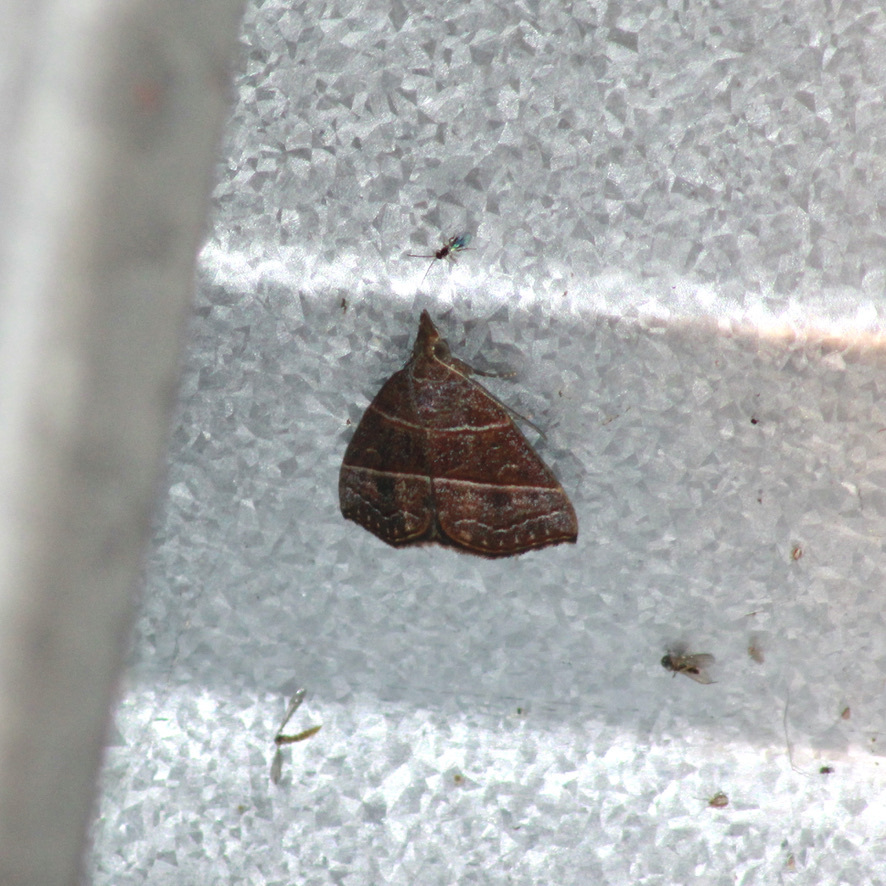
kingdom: Animalia
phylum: Arthropoda
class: Insecta
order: Lepidoptera
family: Erebidae
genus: Hypena
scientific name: Hypena
